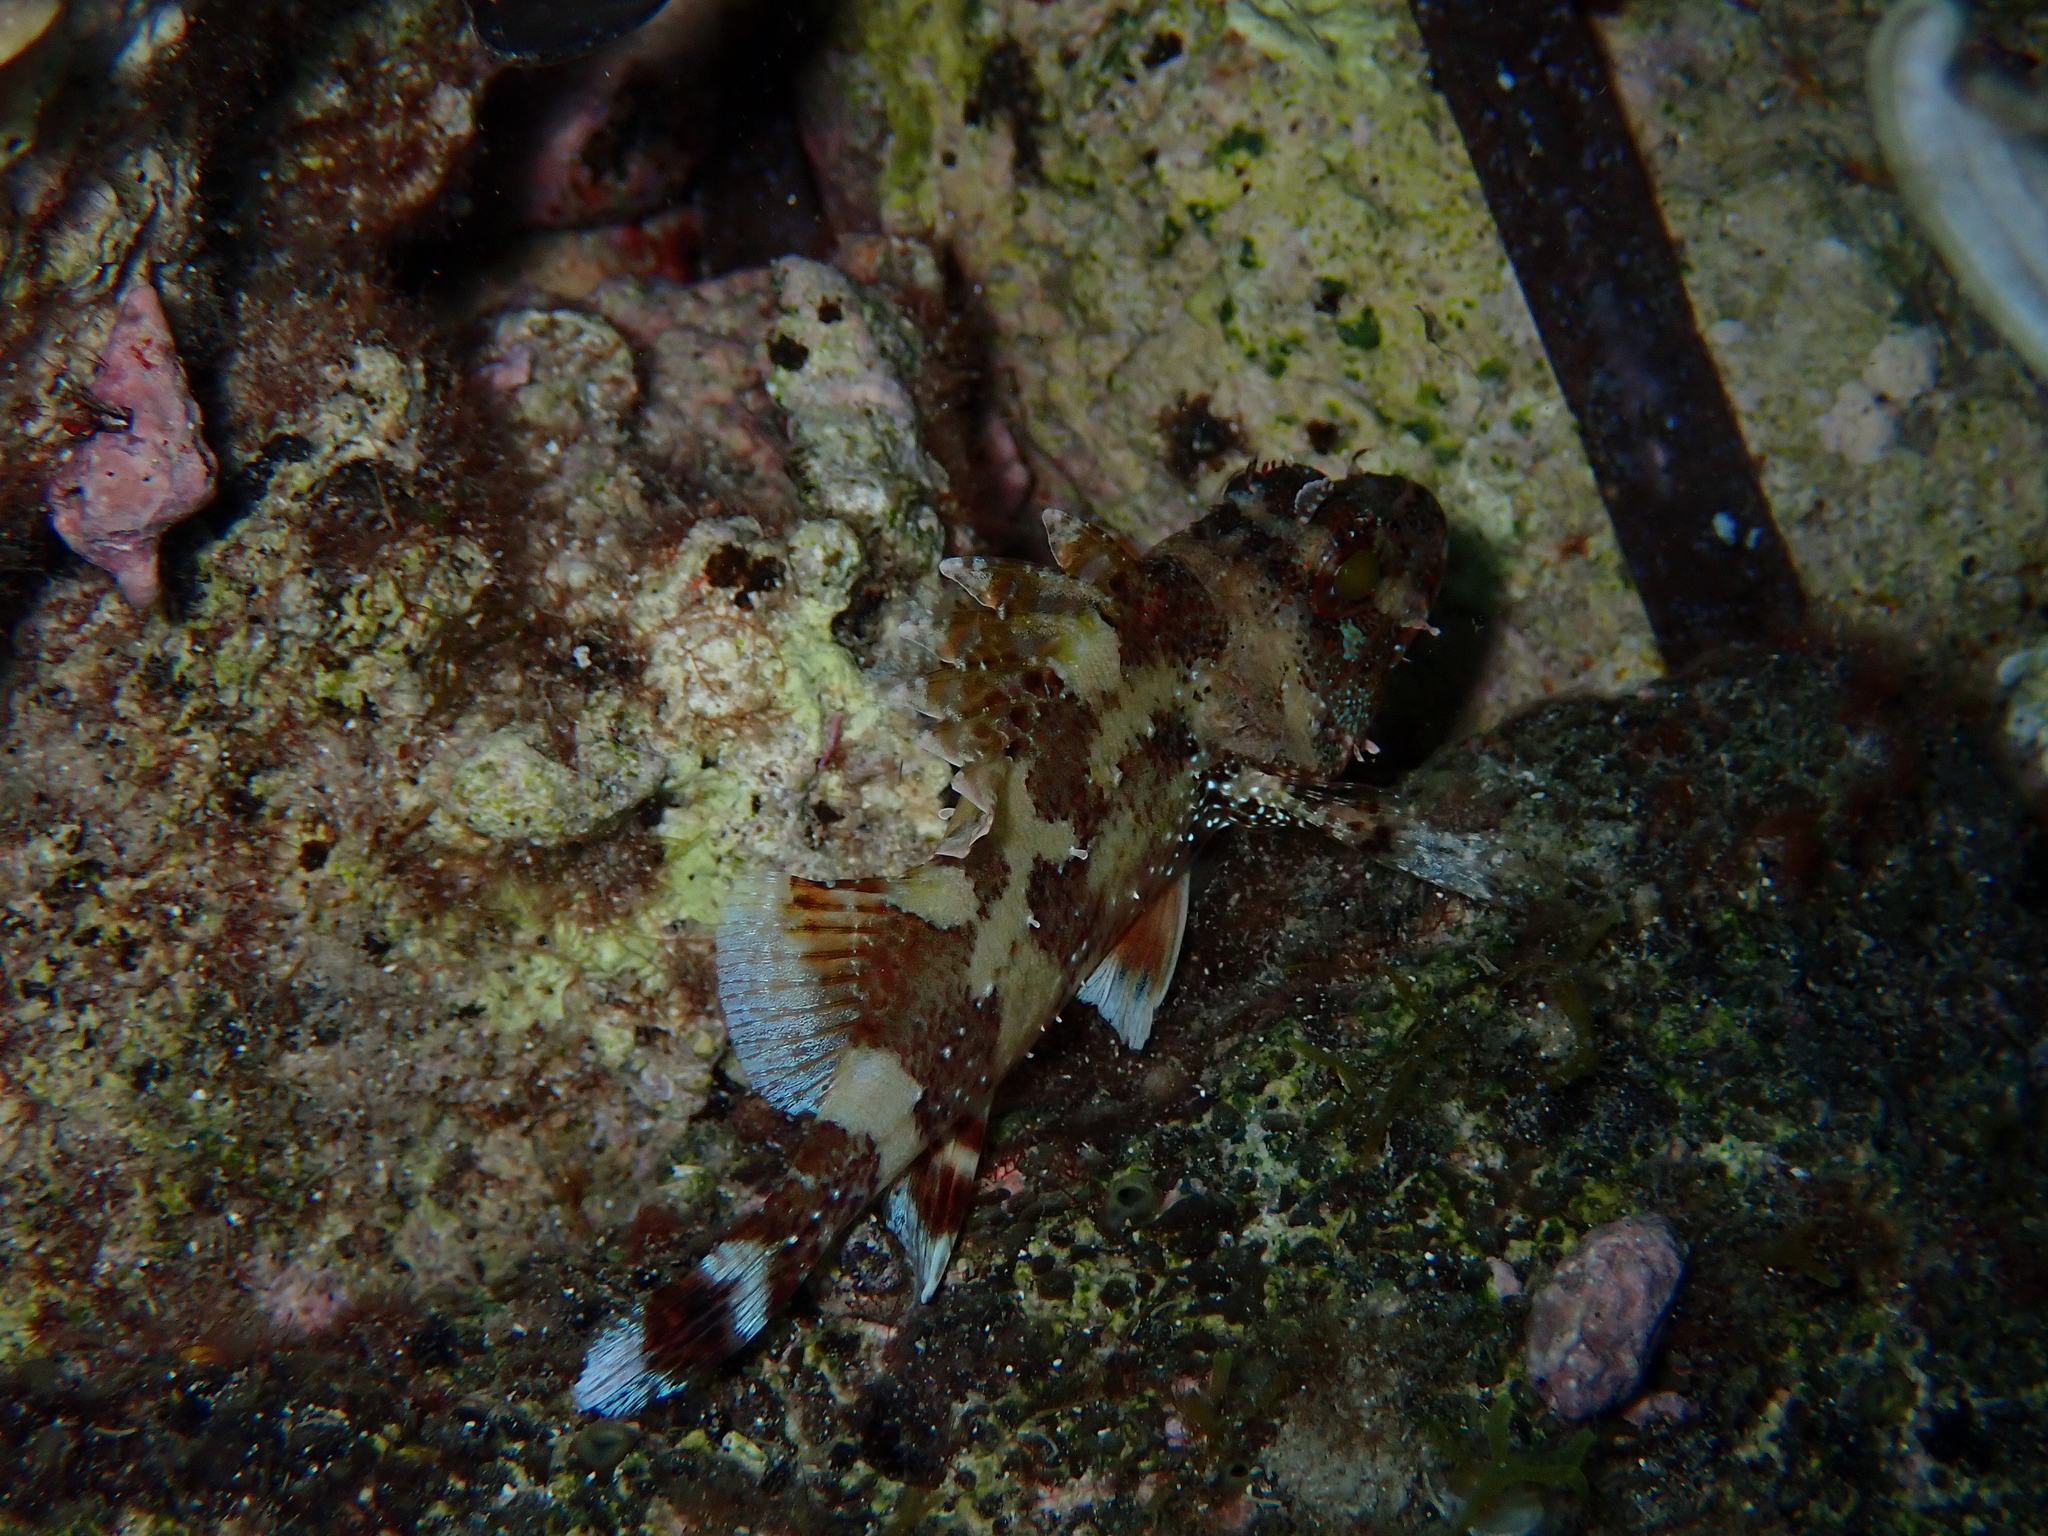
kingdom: Animalia
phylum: Chordata
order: Scorpaeniformes
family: Scorpaenidae
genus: Scorpaena
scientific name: Scorpaena maderensis
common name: Madeira rockfish
